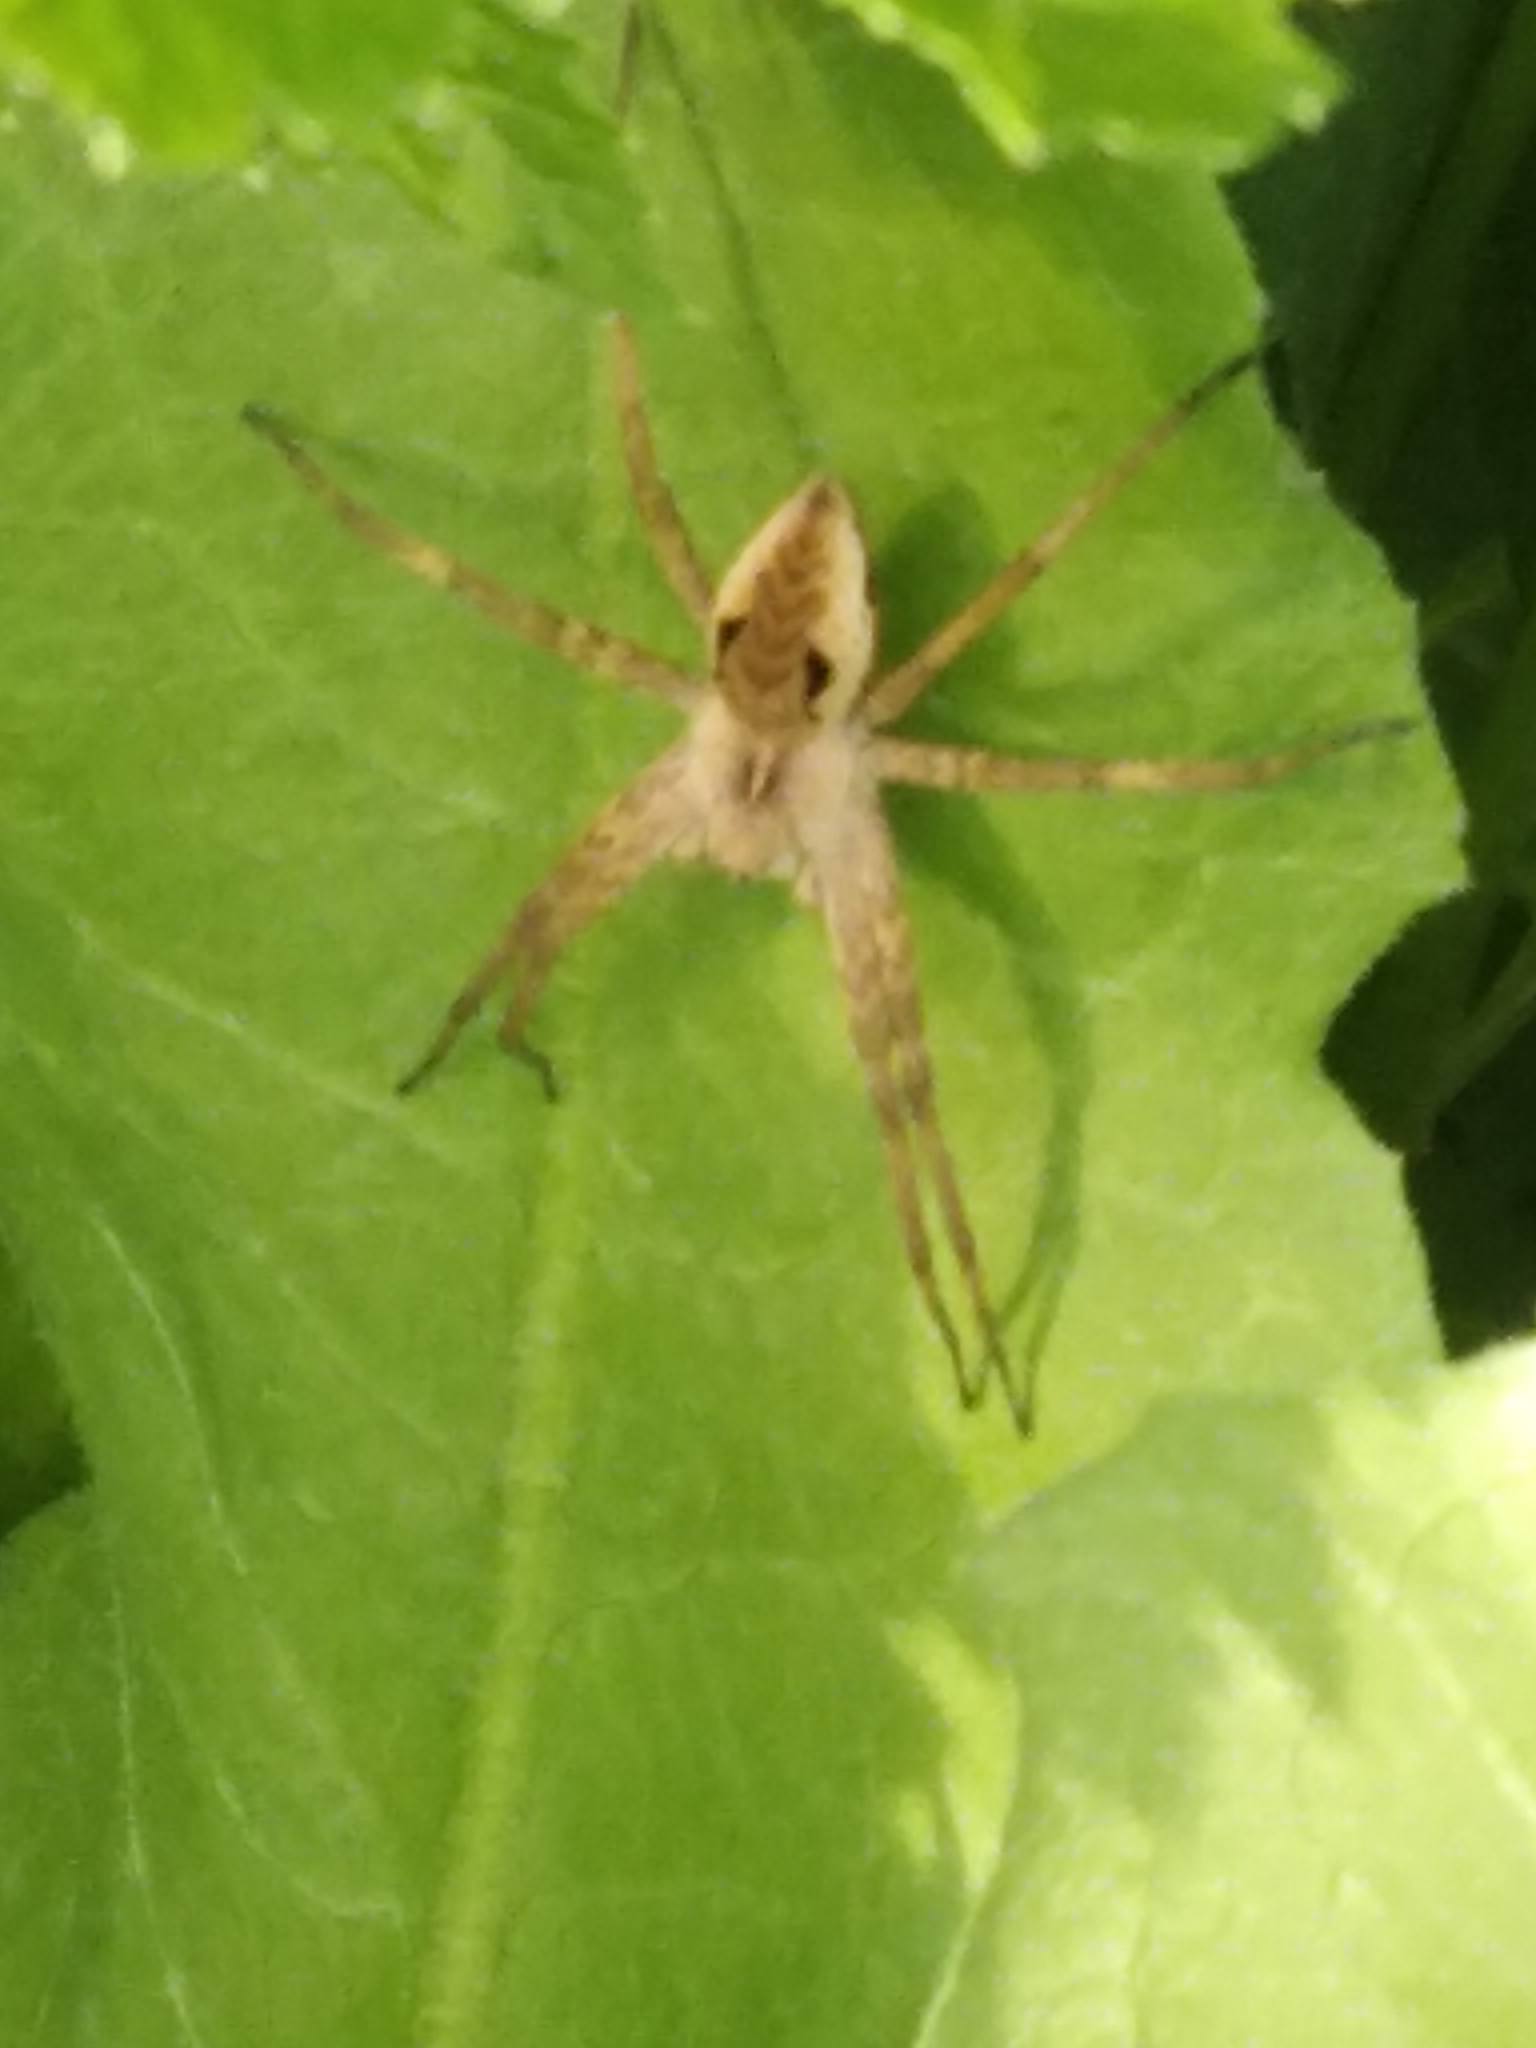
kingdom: Animalia
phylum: Arthropoda
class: Arachnida
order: Araneae
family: Pisauridae
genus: Pisaura
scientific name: Pisaura mirabilis
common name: Tent spider
